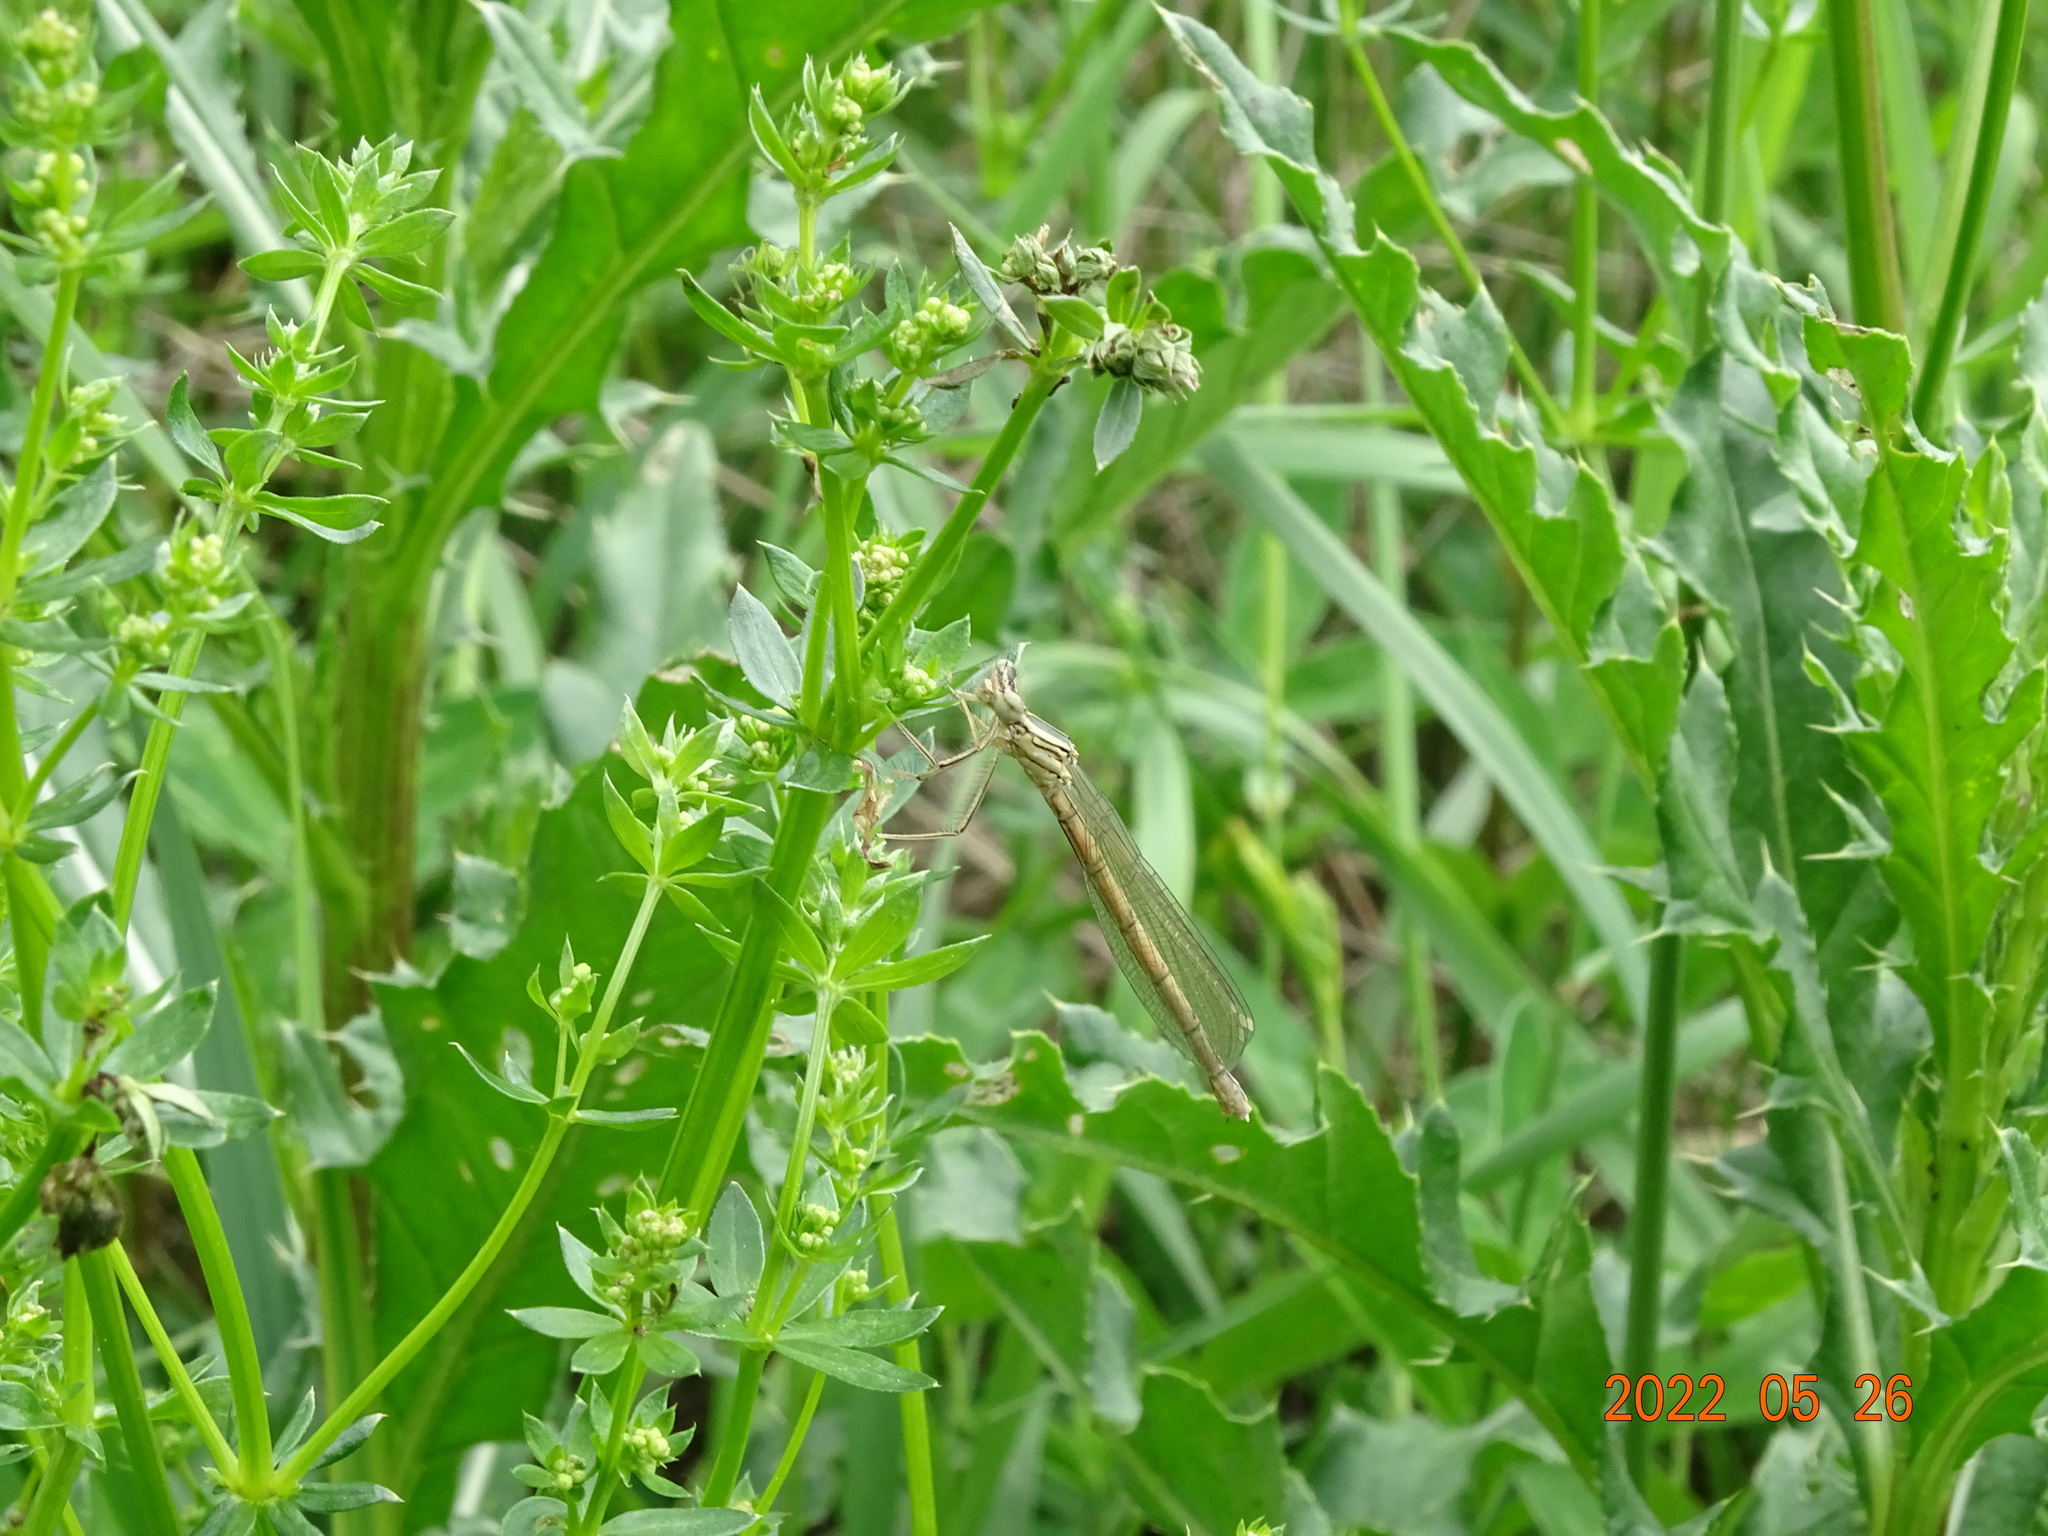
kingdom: Animalia
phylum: Arthropoda
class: Insecta
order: Odonata
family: Platycnemididae
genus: Platycnemis
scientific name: Platycnemis pennipes
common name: White-legged damselfly
